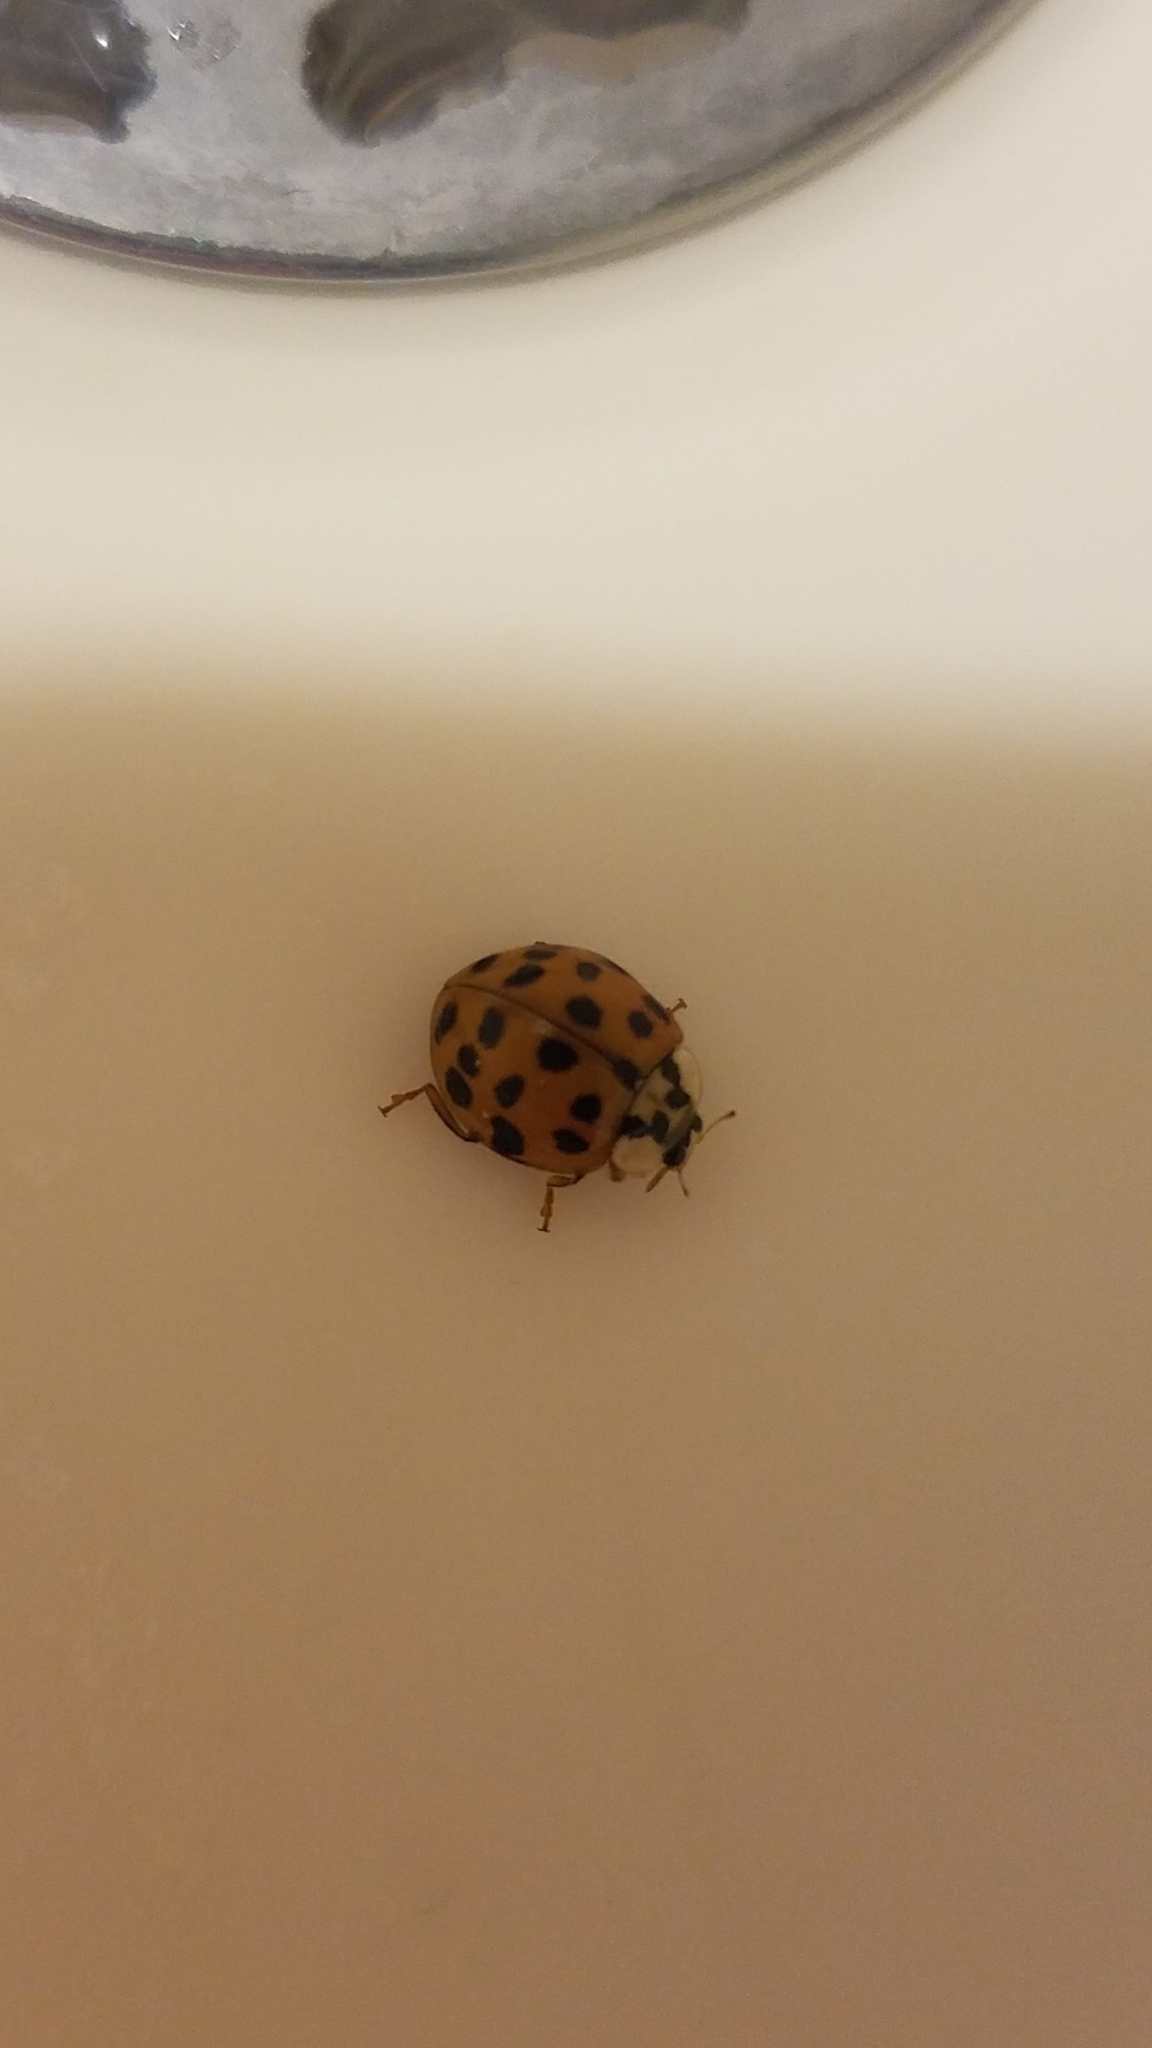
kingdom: Animalia
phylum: Arthropoda
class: Insecta
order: Coleoptera
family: Coccinellidae
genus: Harmonia
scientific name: Harmonia axyridis
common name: Harlequin ladybird
